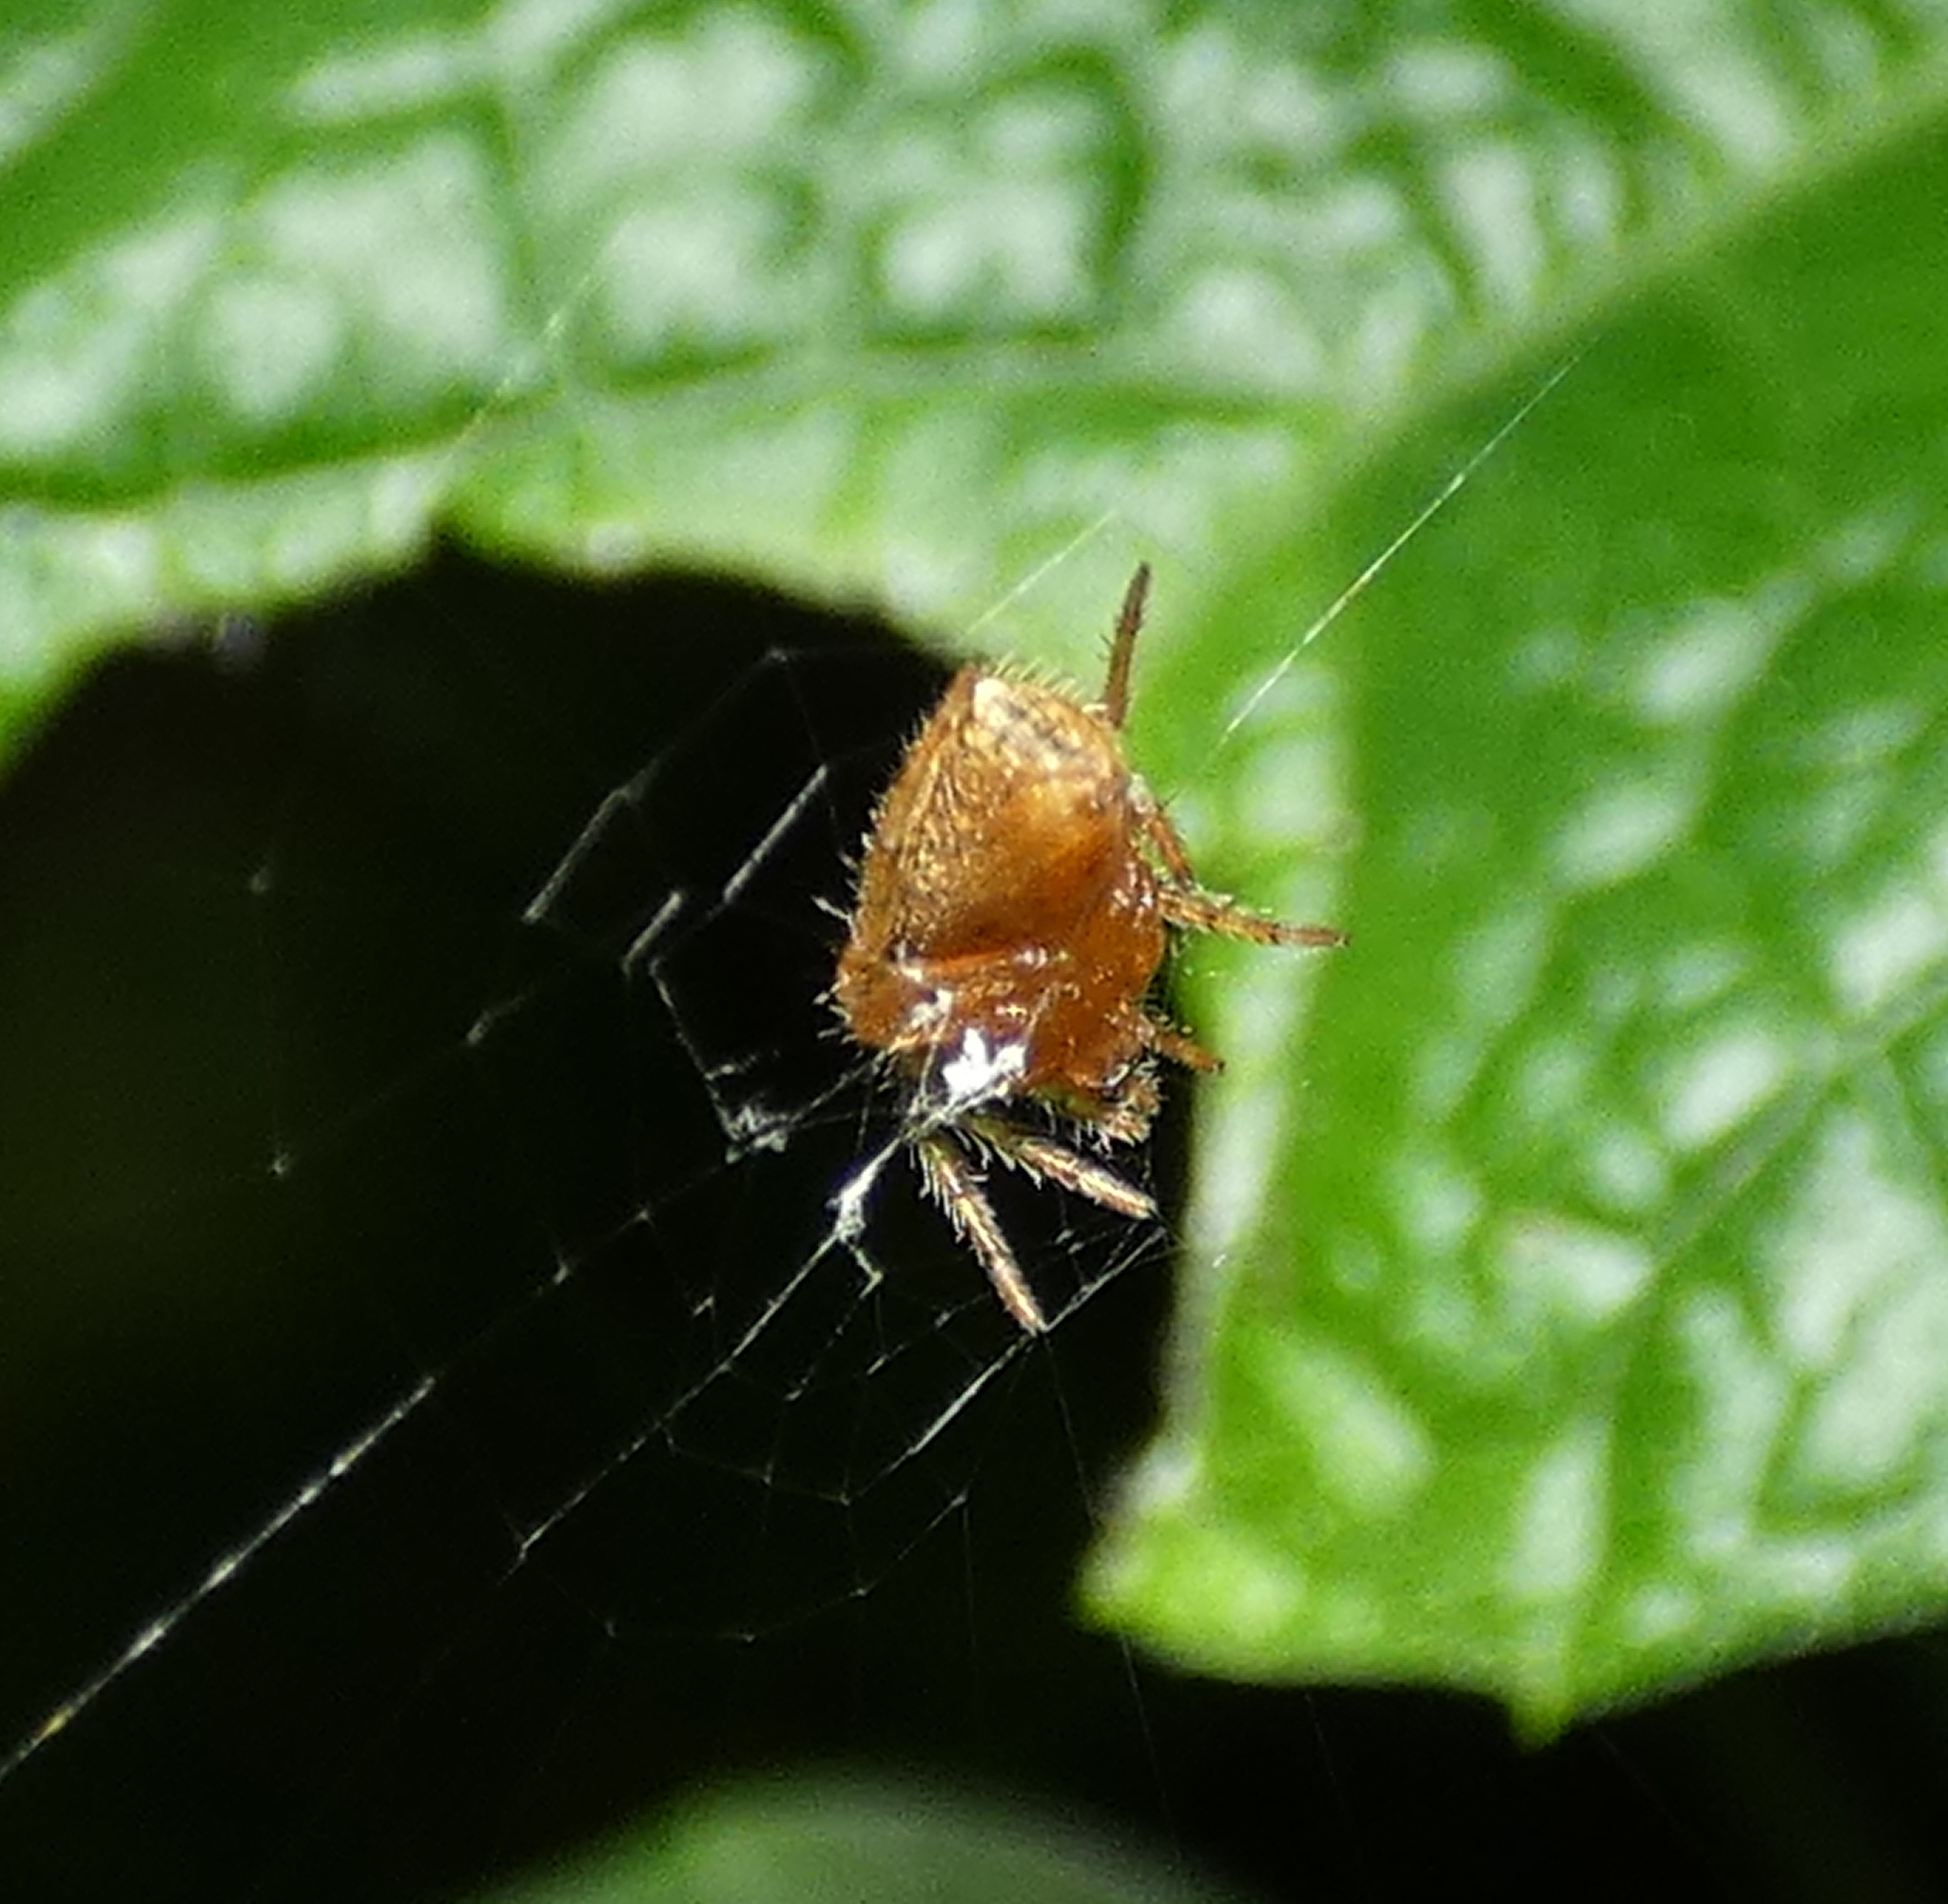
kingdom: Animalia
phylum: Arthropoda
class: Arachnida
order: Araneae
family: Araneidae
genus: Eriophora
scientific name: Eriophora edax
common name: Orb weavers
